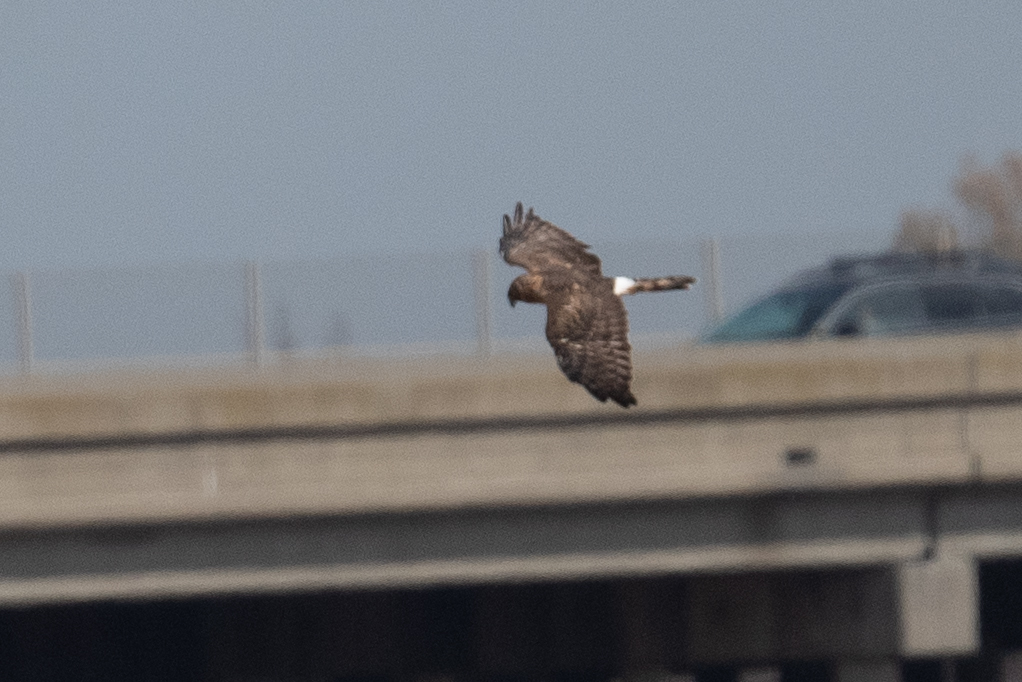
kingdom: Animalia
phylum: Chordata
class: Aves
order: Accipitriformes
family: Accipitridae
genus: Circus
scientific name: Circus cyaneus
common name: Hen harrier
